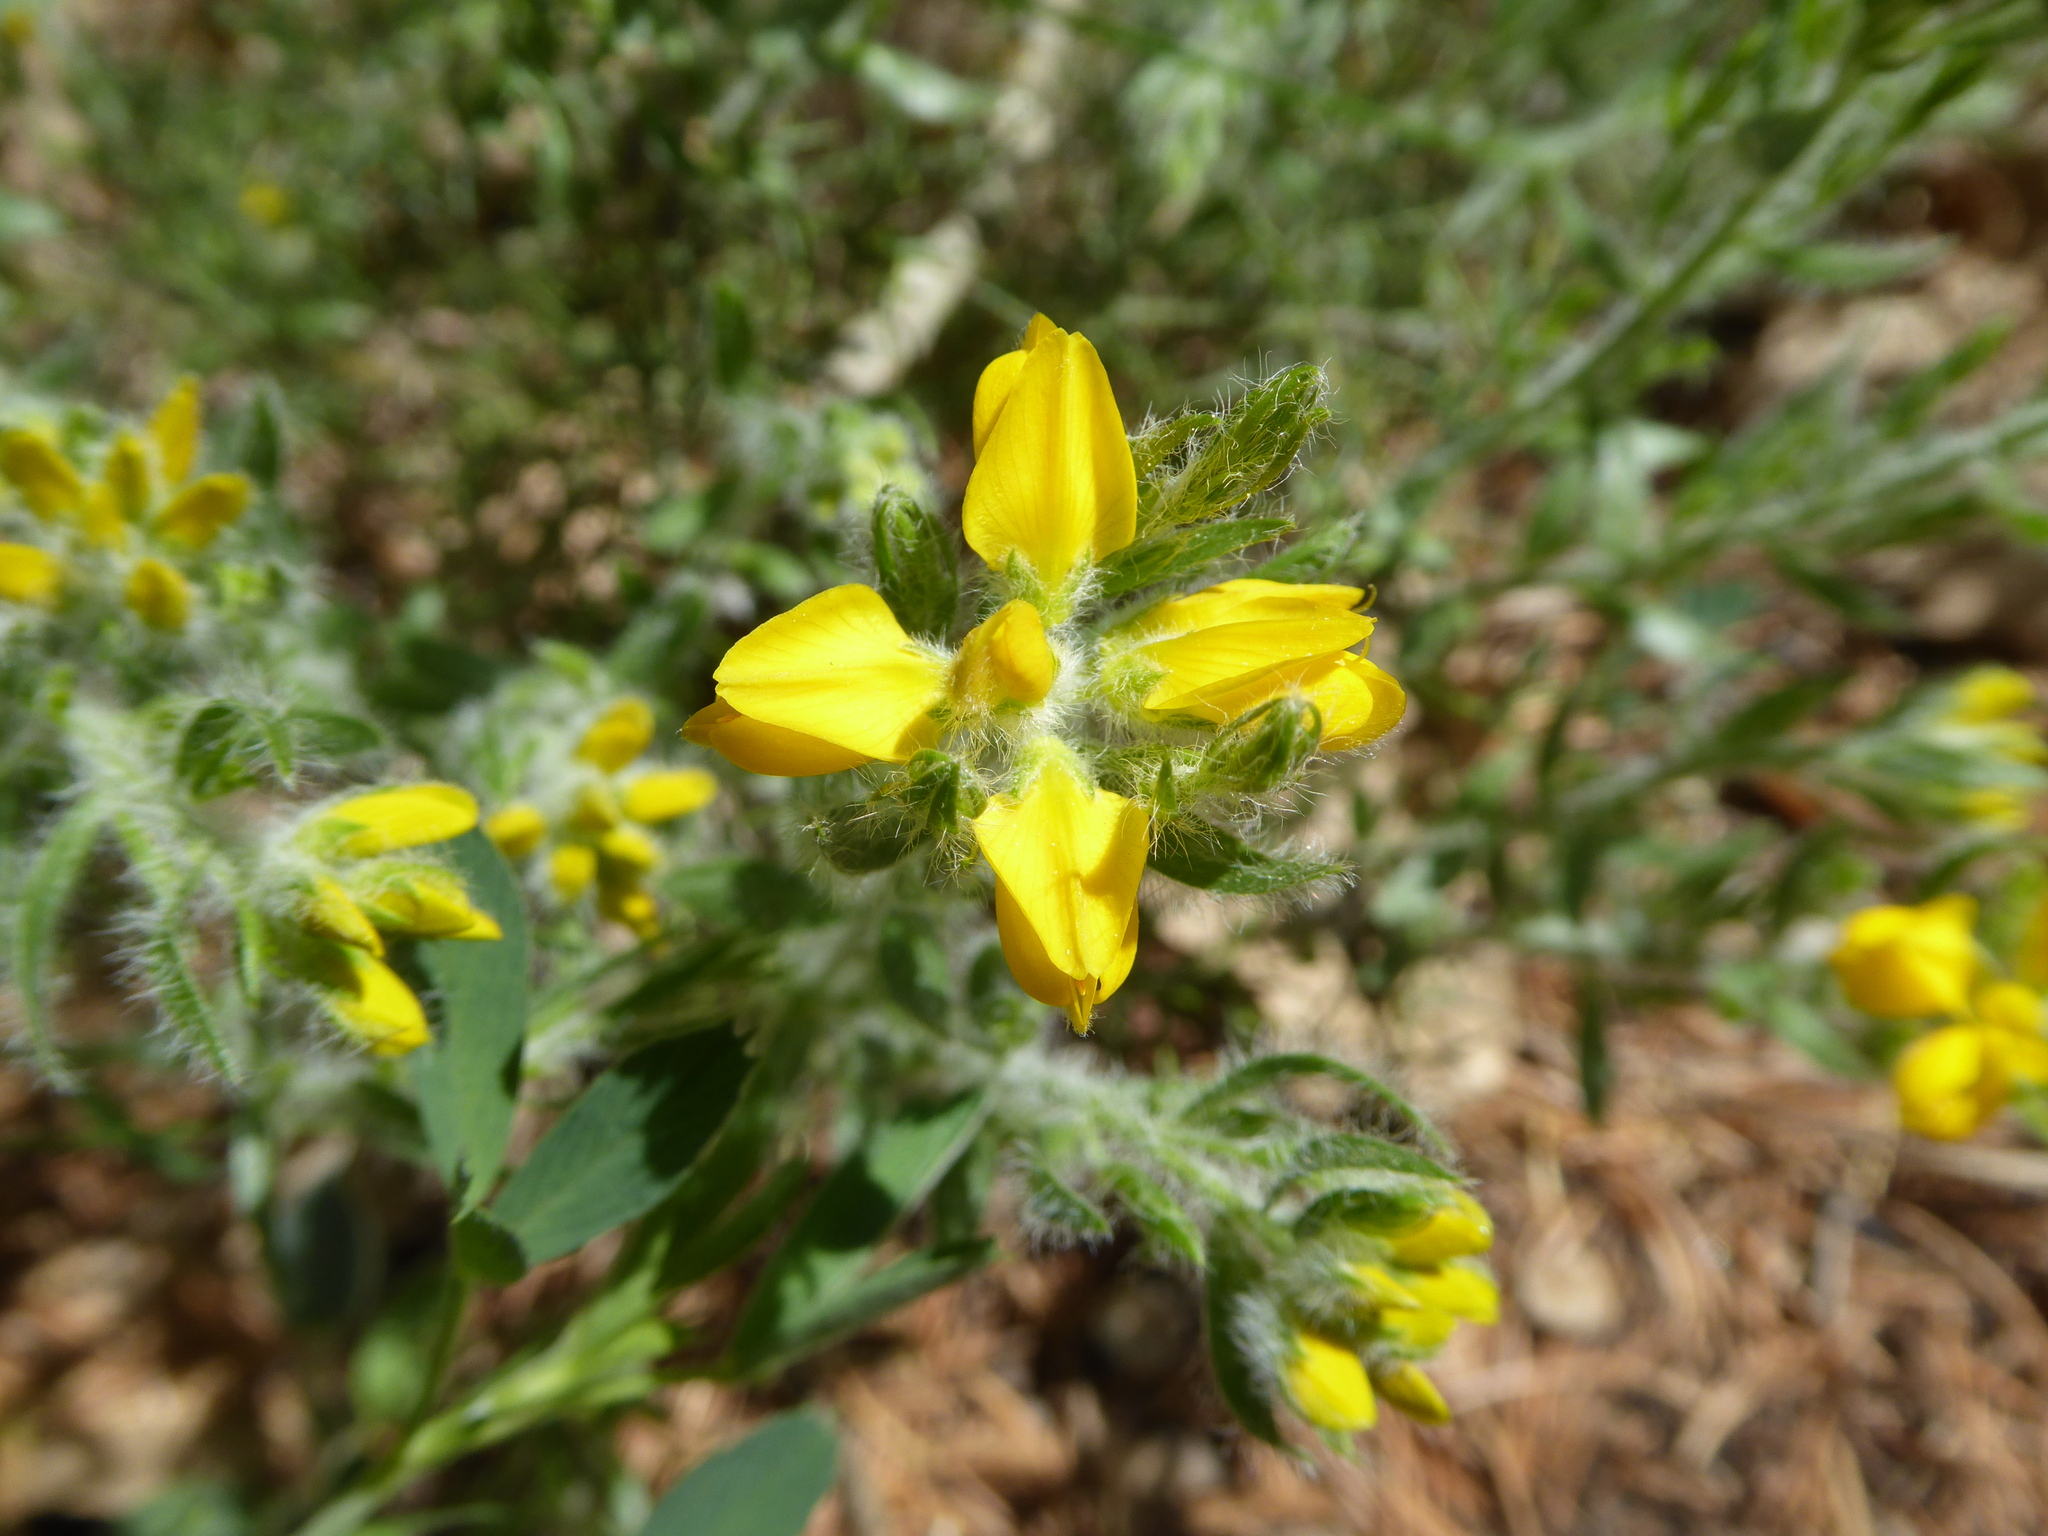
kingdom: Plantae
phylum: Tracheophyta
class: Magnoliopsida
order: Fabales
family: Fabaceae
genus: Genista
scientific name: Genista hispanica
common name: Spanish gorse
